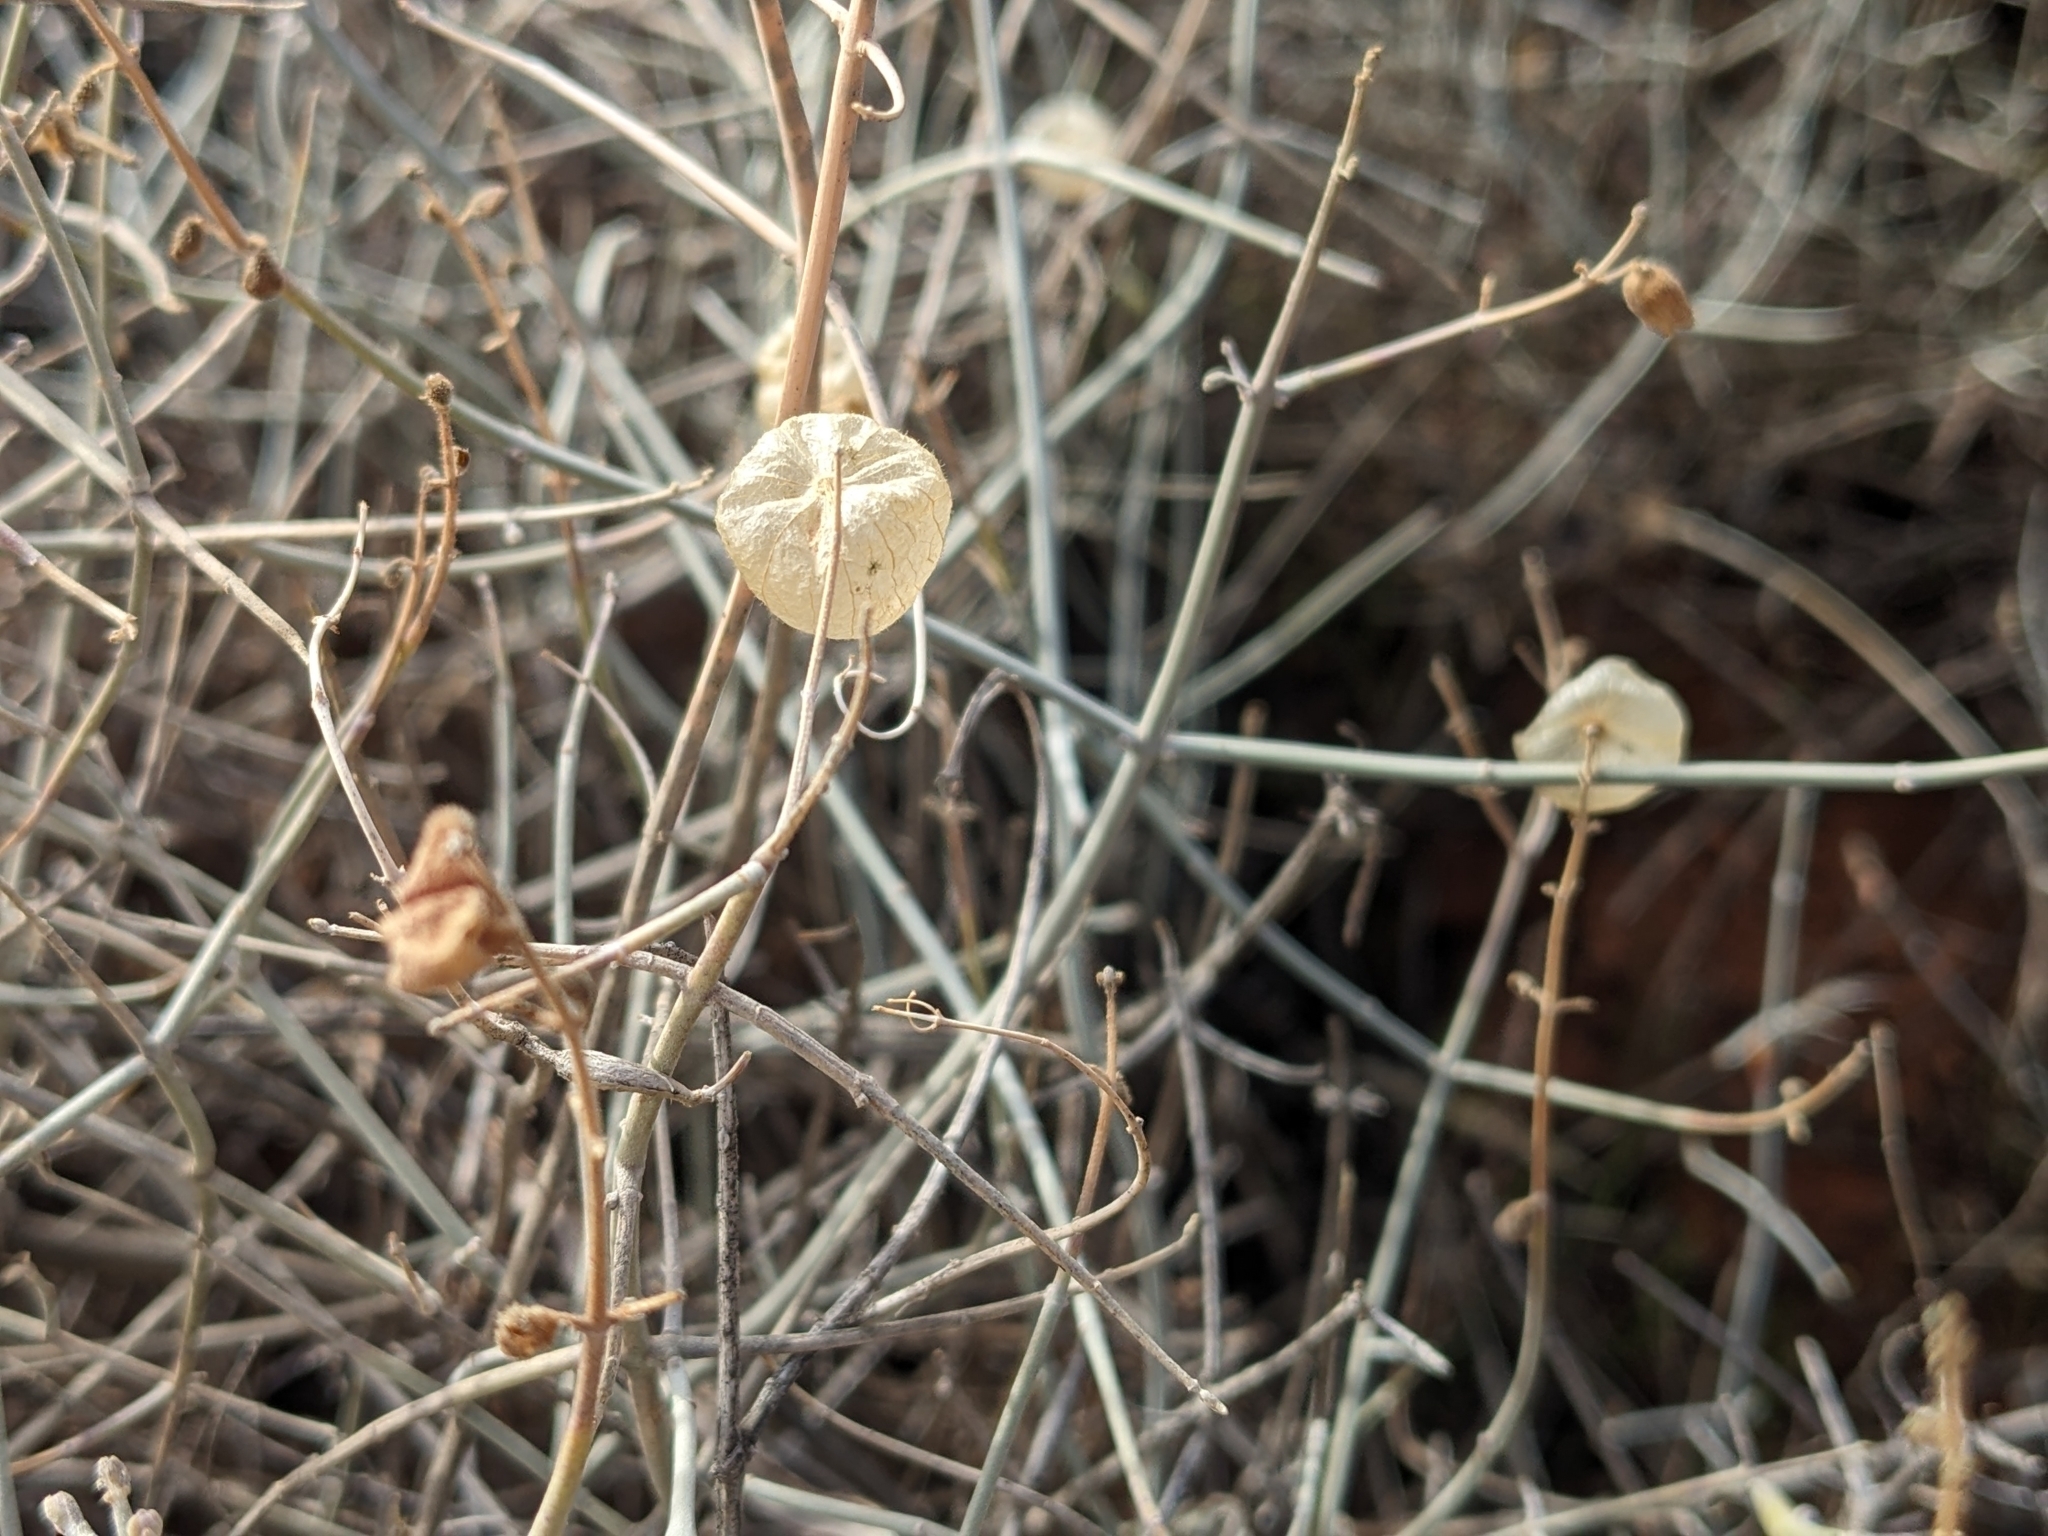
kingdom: Plantae
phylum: Tracheophyta
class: Magnoliopsida
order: Lamiales
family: Lamiaceae
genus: Scutellaria
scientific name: Scutellaria mexicana
